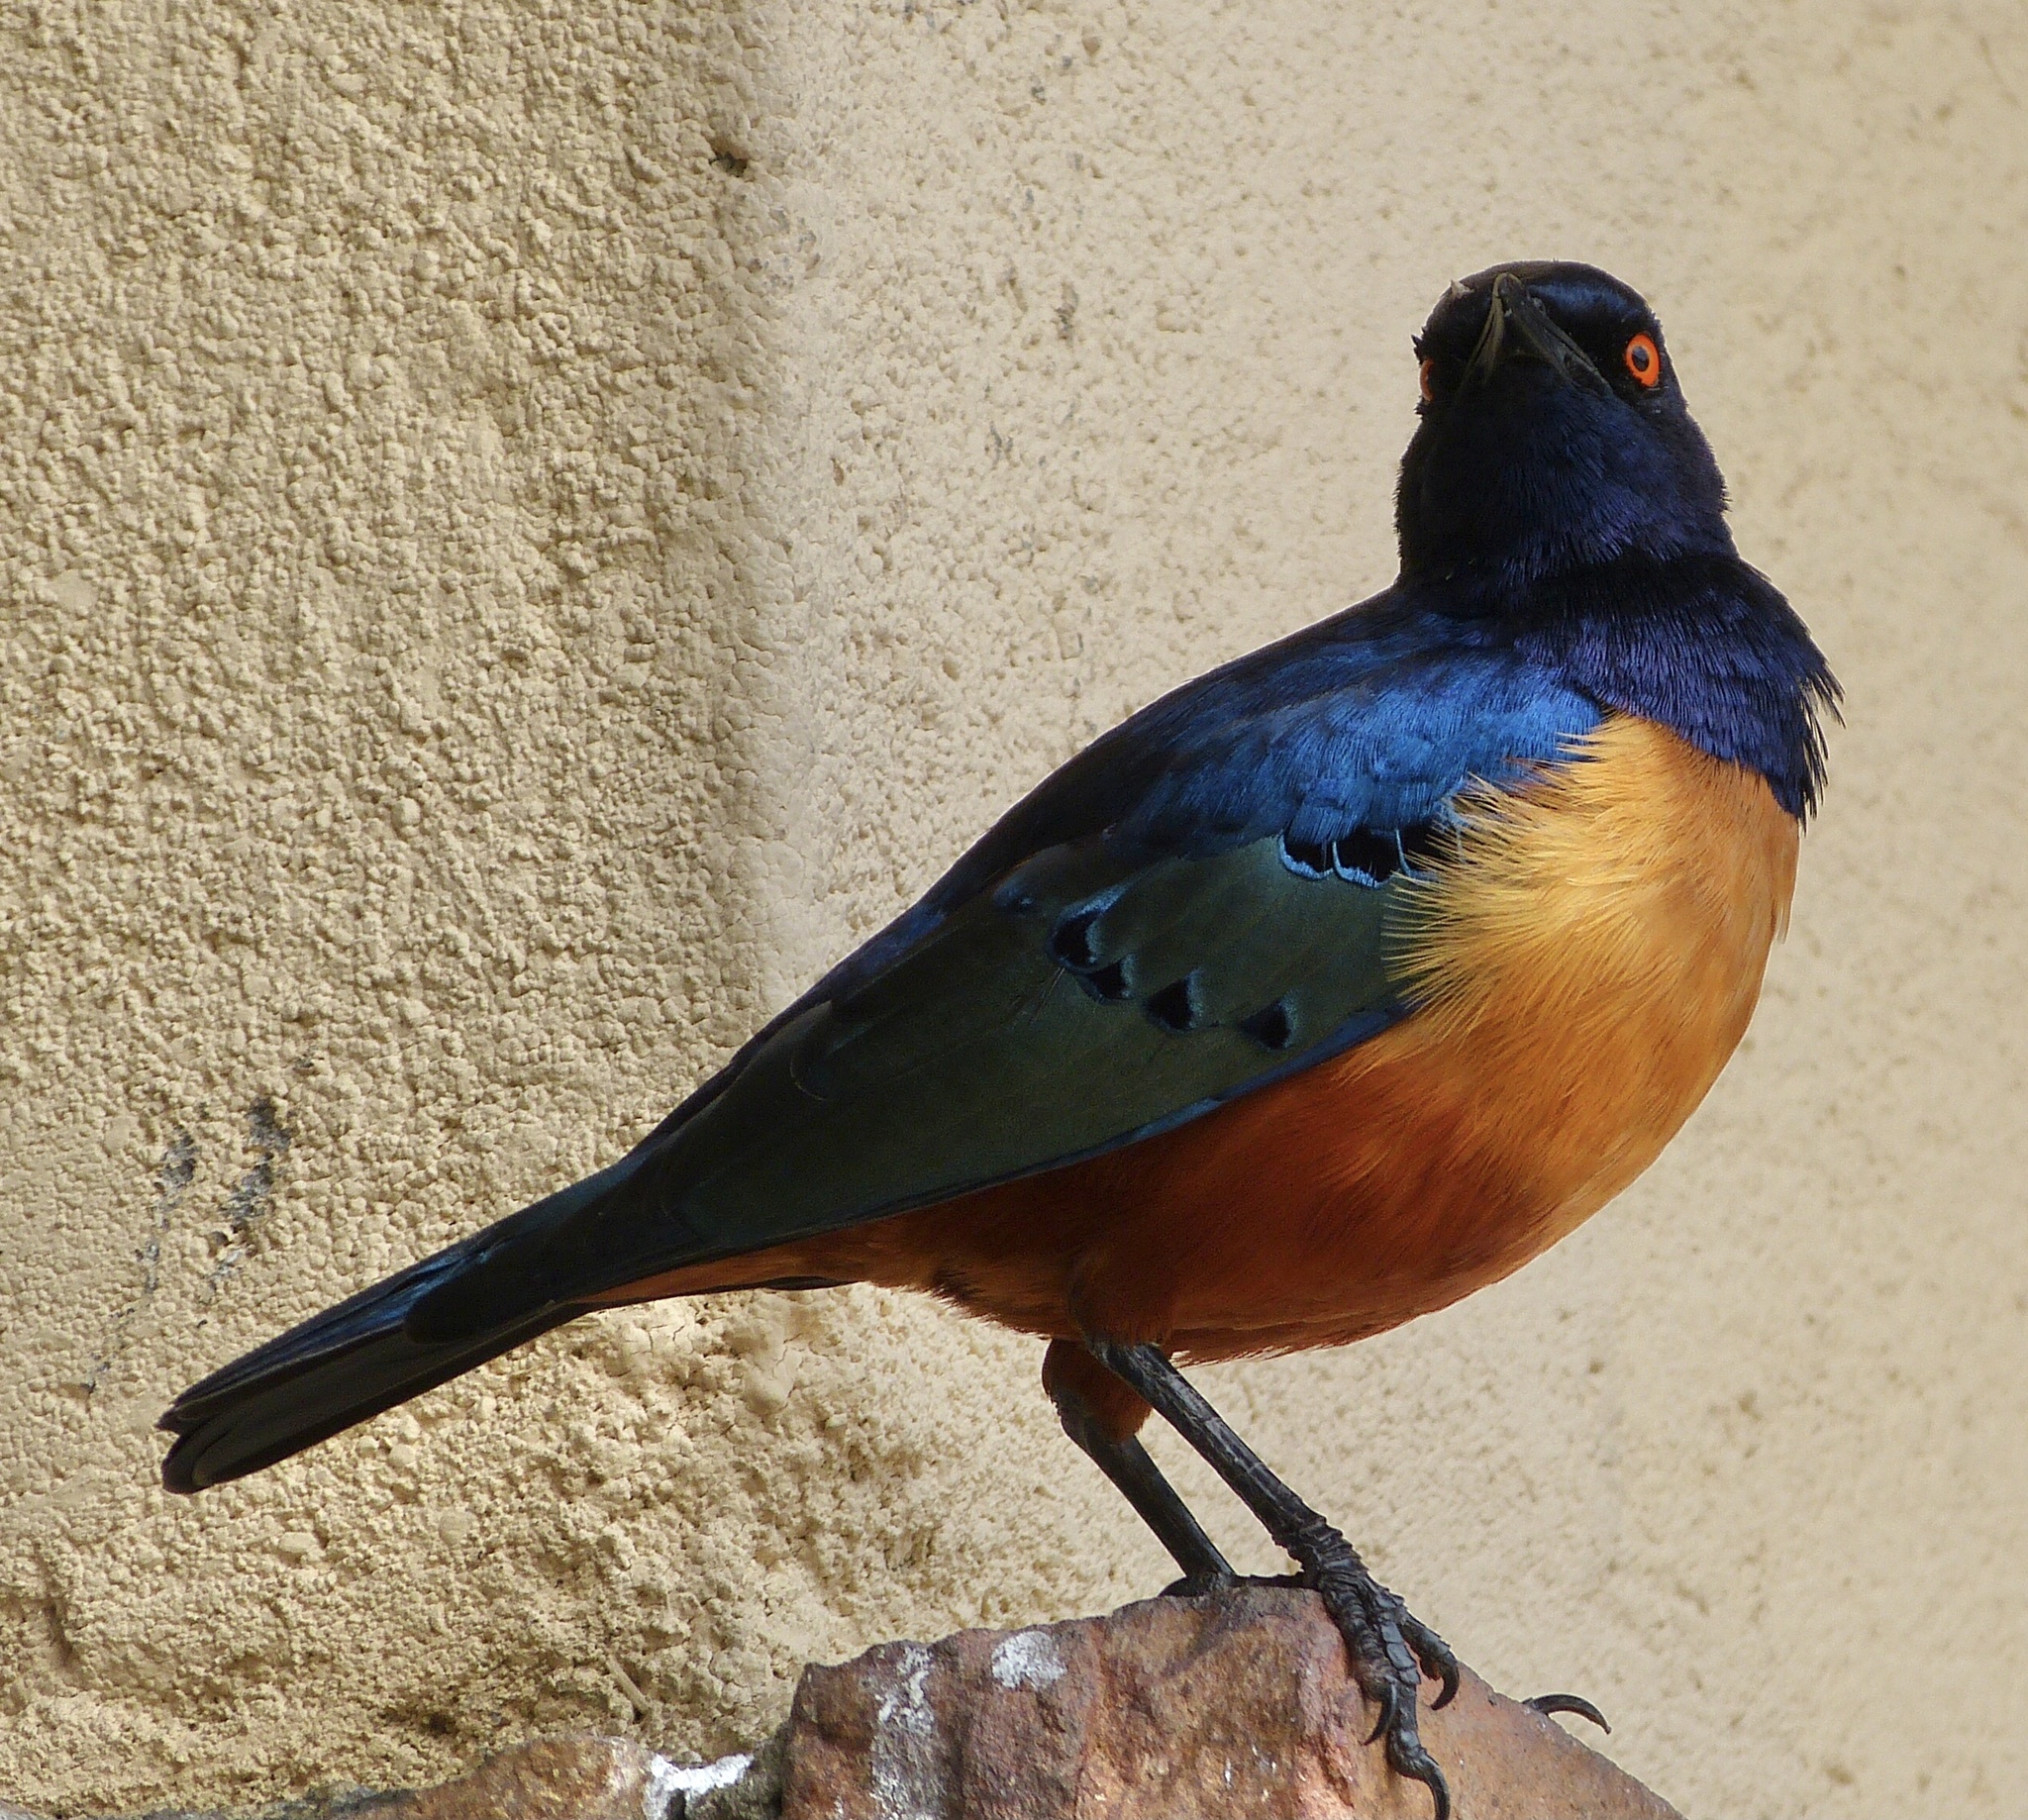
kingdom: Animalia
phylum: Chordata
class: Aves
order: Passeriformes
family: Sturnidae
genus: Lamprotornis
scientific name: Lamprotornis hildebrandti
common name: Hildebrandt's starling
